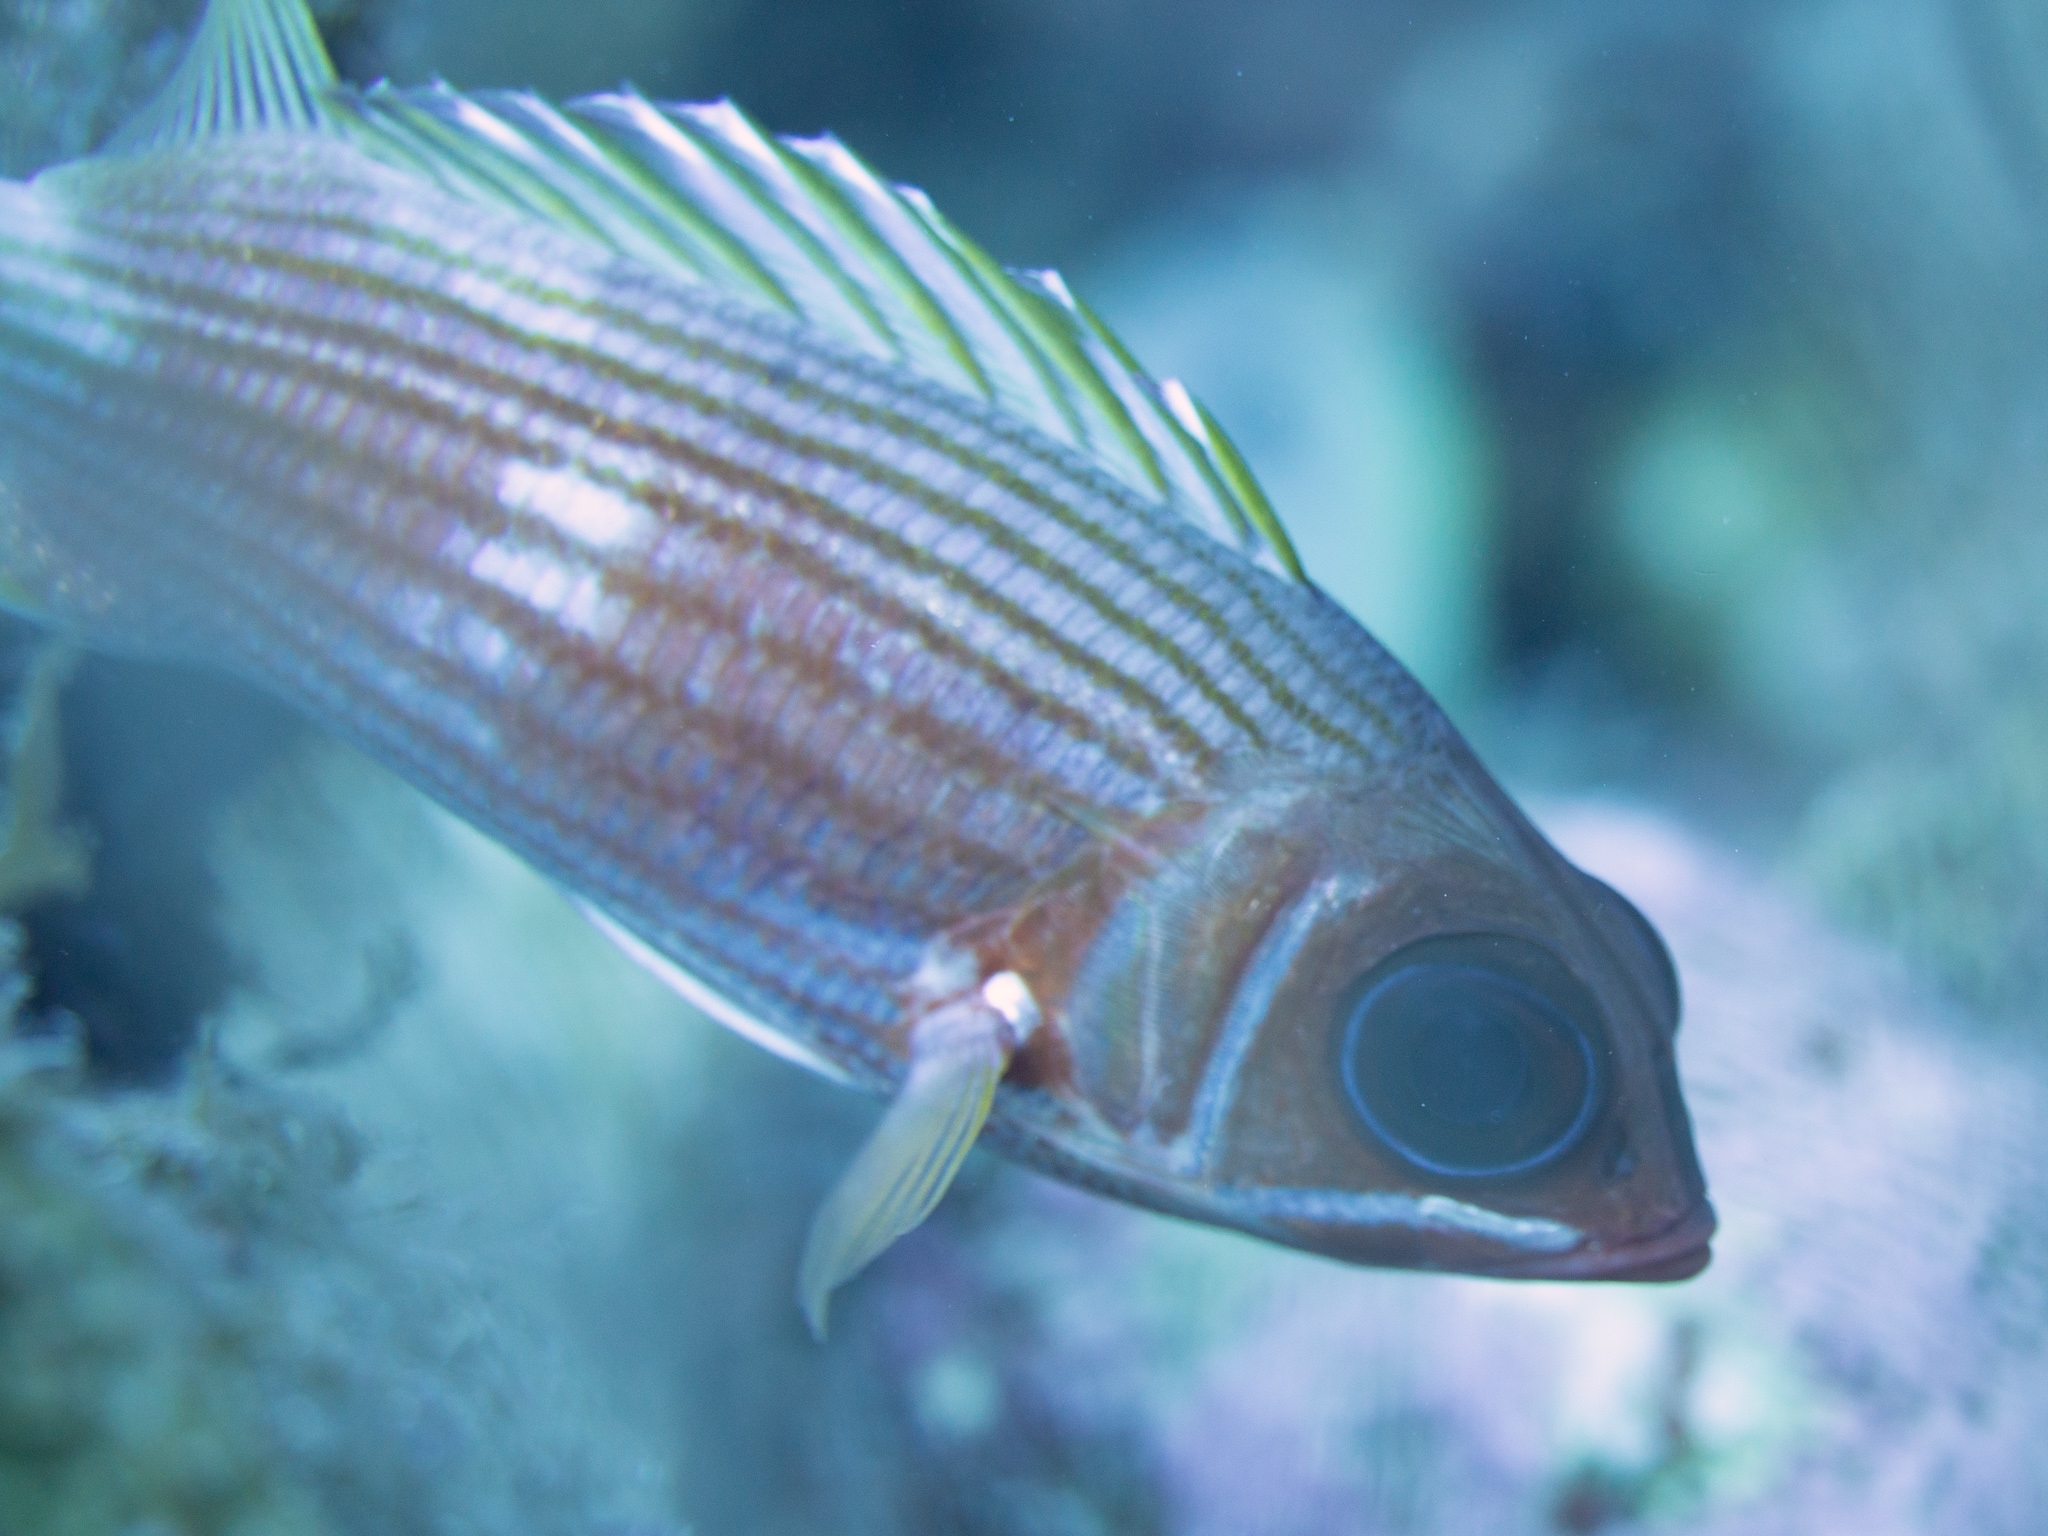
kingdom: Animalia
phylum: Chordata
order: Beryciformes
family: Holocentridae
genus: Holocentrus
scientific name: Holocentrus rufus
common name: Longspine squirrelfish
